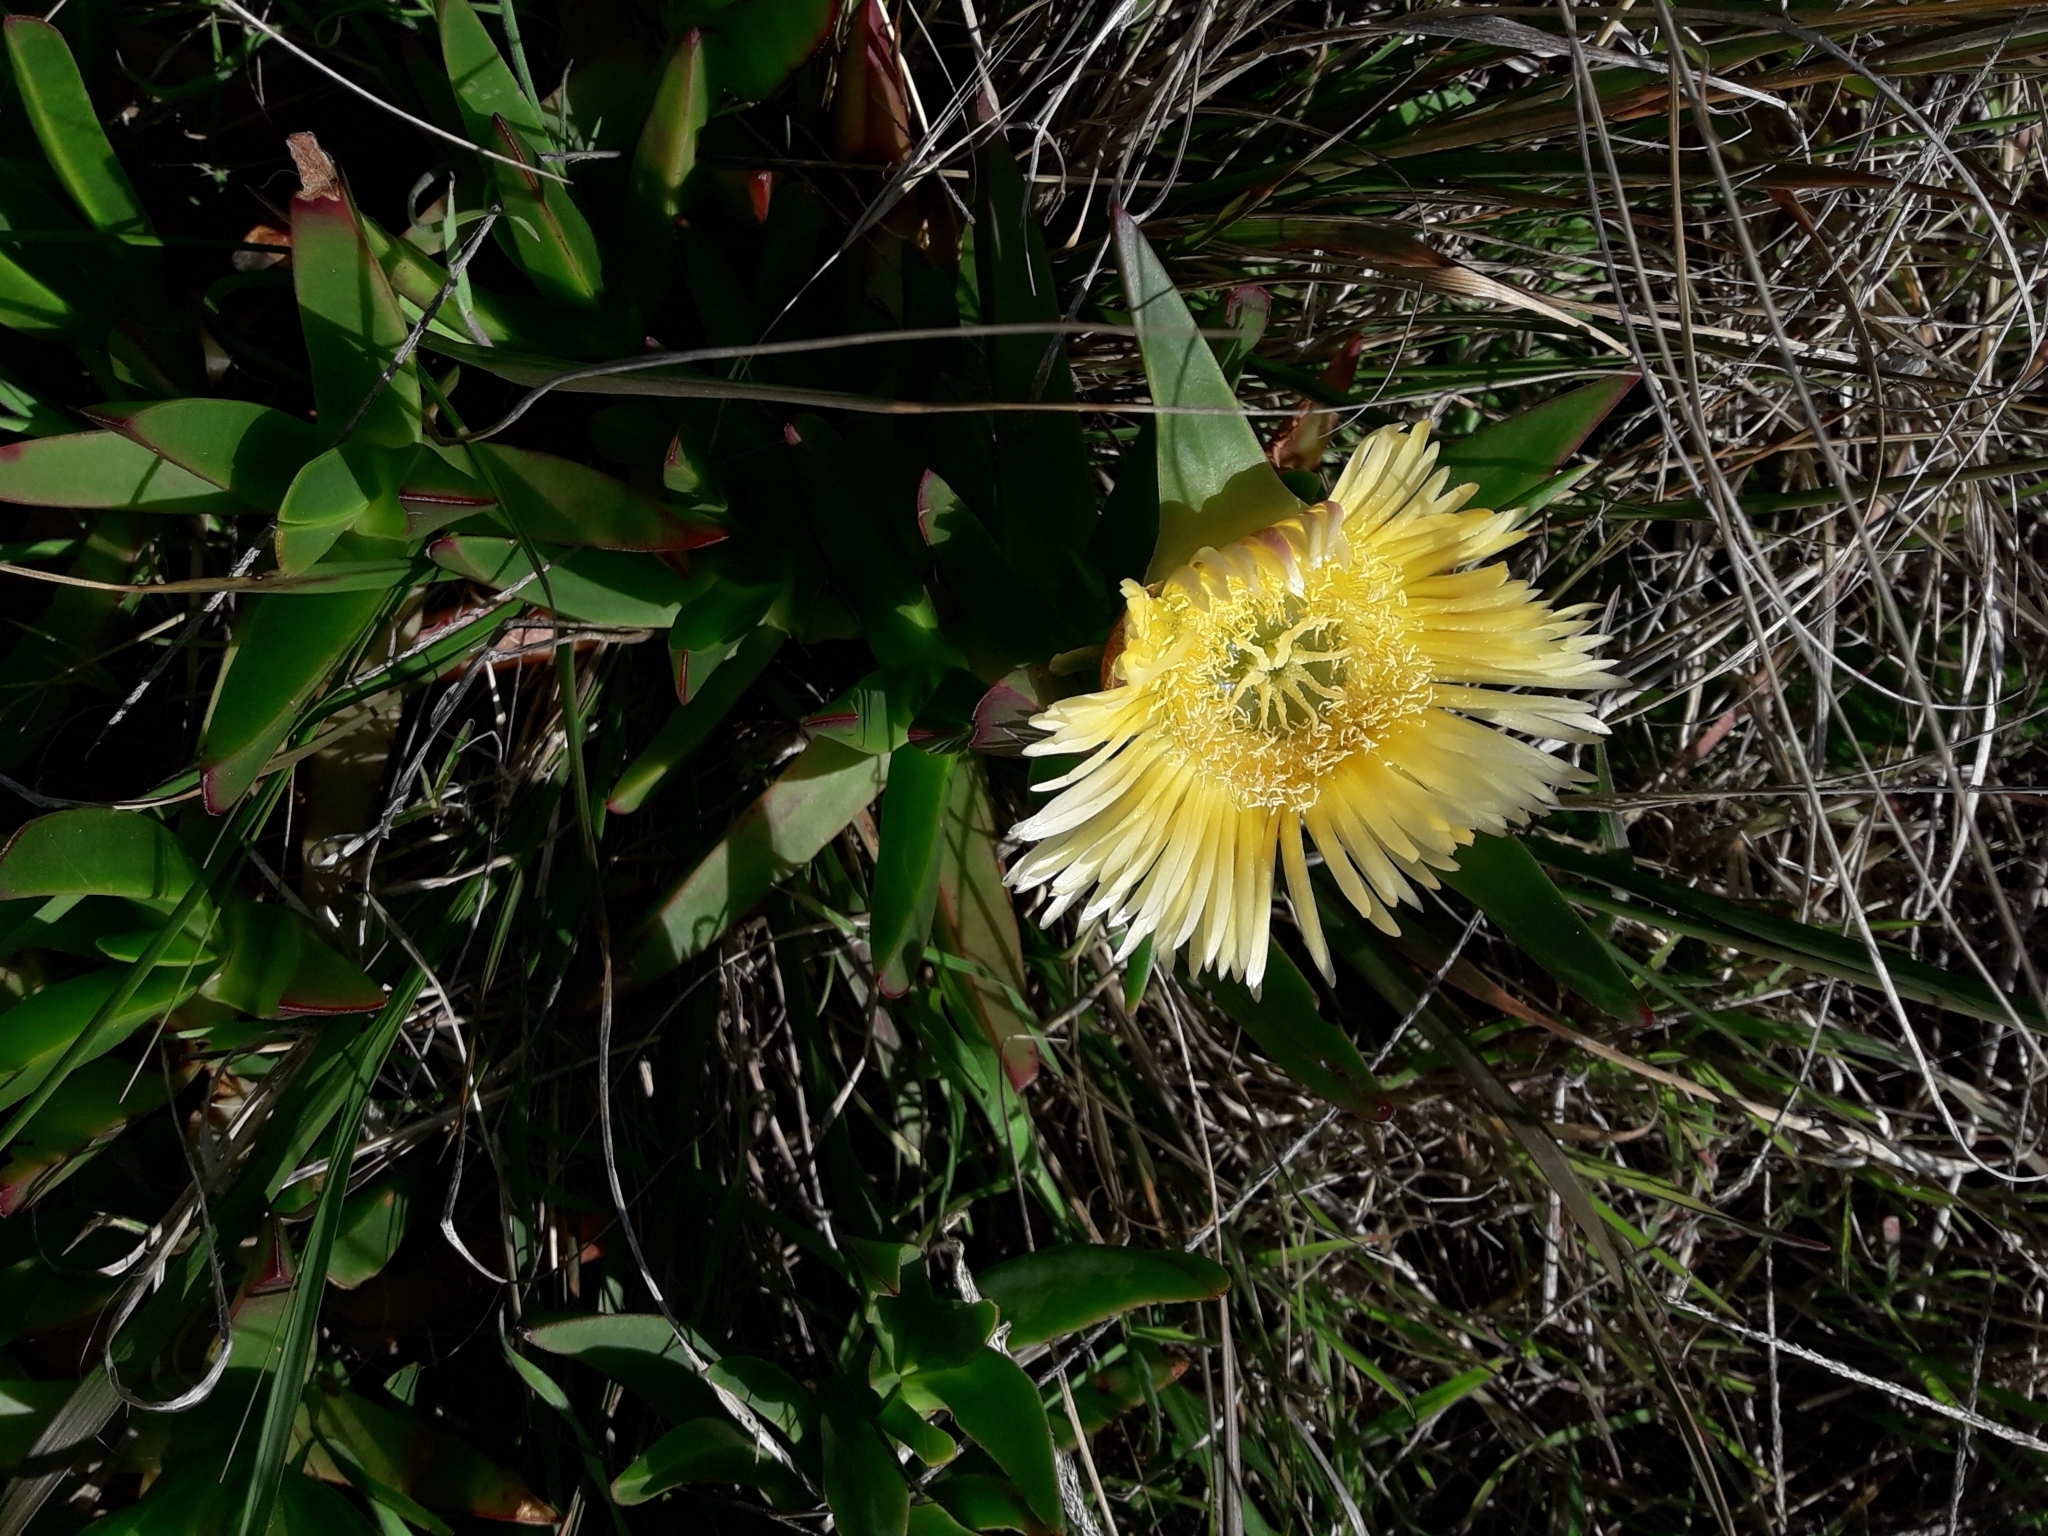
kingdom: Plantae
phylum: Tracheophyta
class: Magnoliopsida
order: Caryophyllales
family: Aizoaceae
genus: Carpobrotus
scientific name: Carpobrotus edulis
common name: Hottentot-fig
